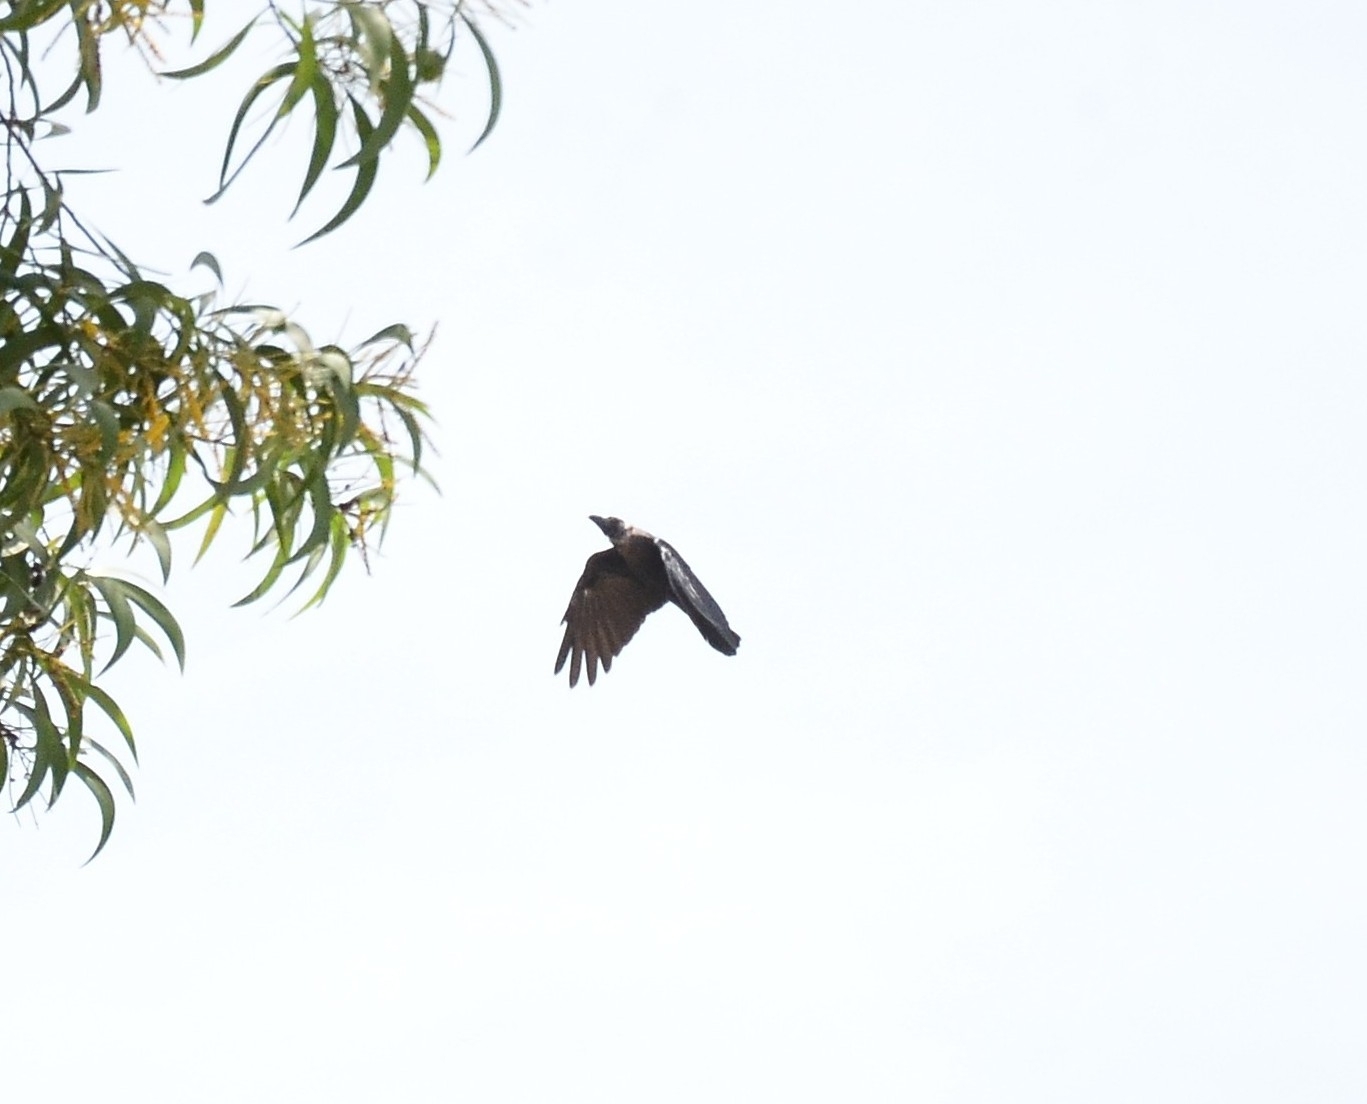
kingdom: Animalia
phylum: Chordata
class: Aves
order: Passeriformes
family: Corvidae
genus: Corvus
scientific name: Corvus splendens
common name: House crow
